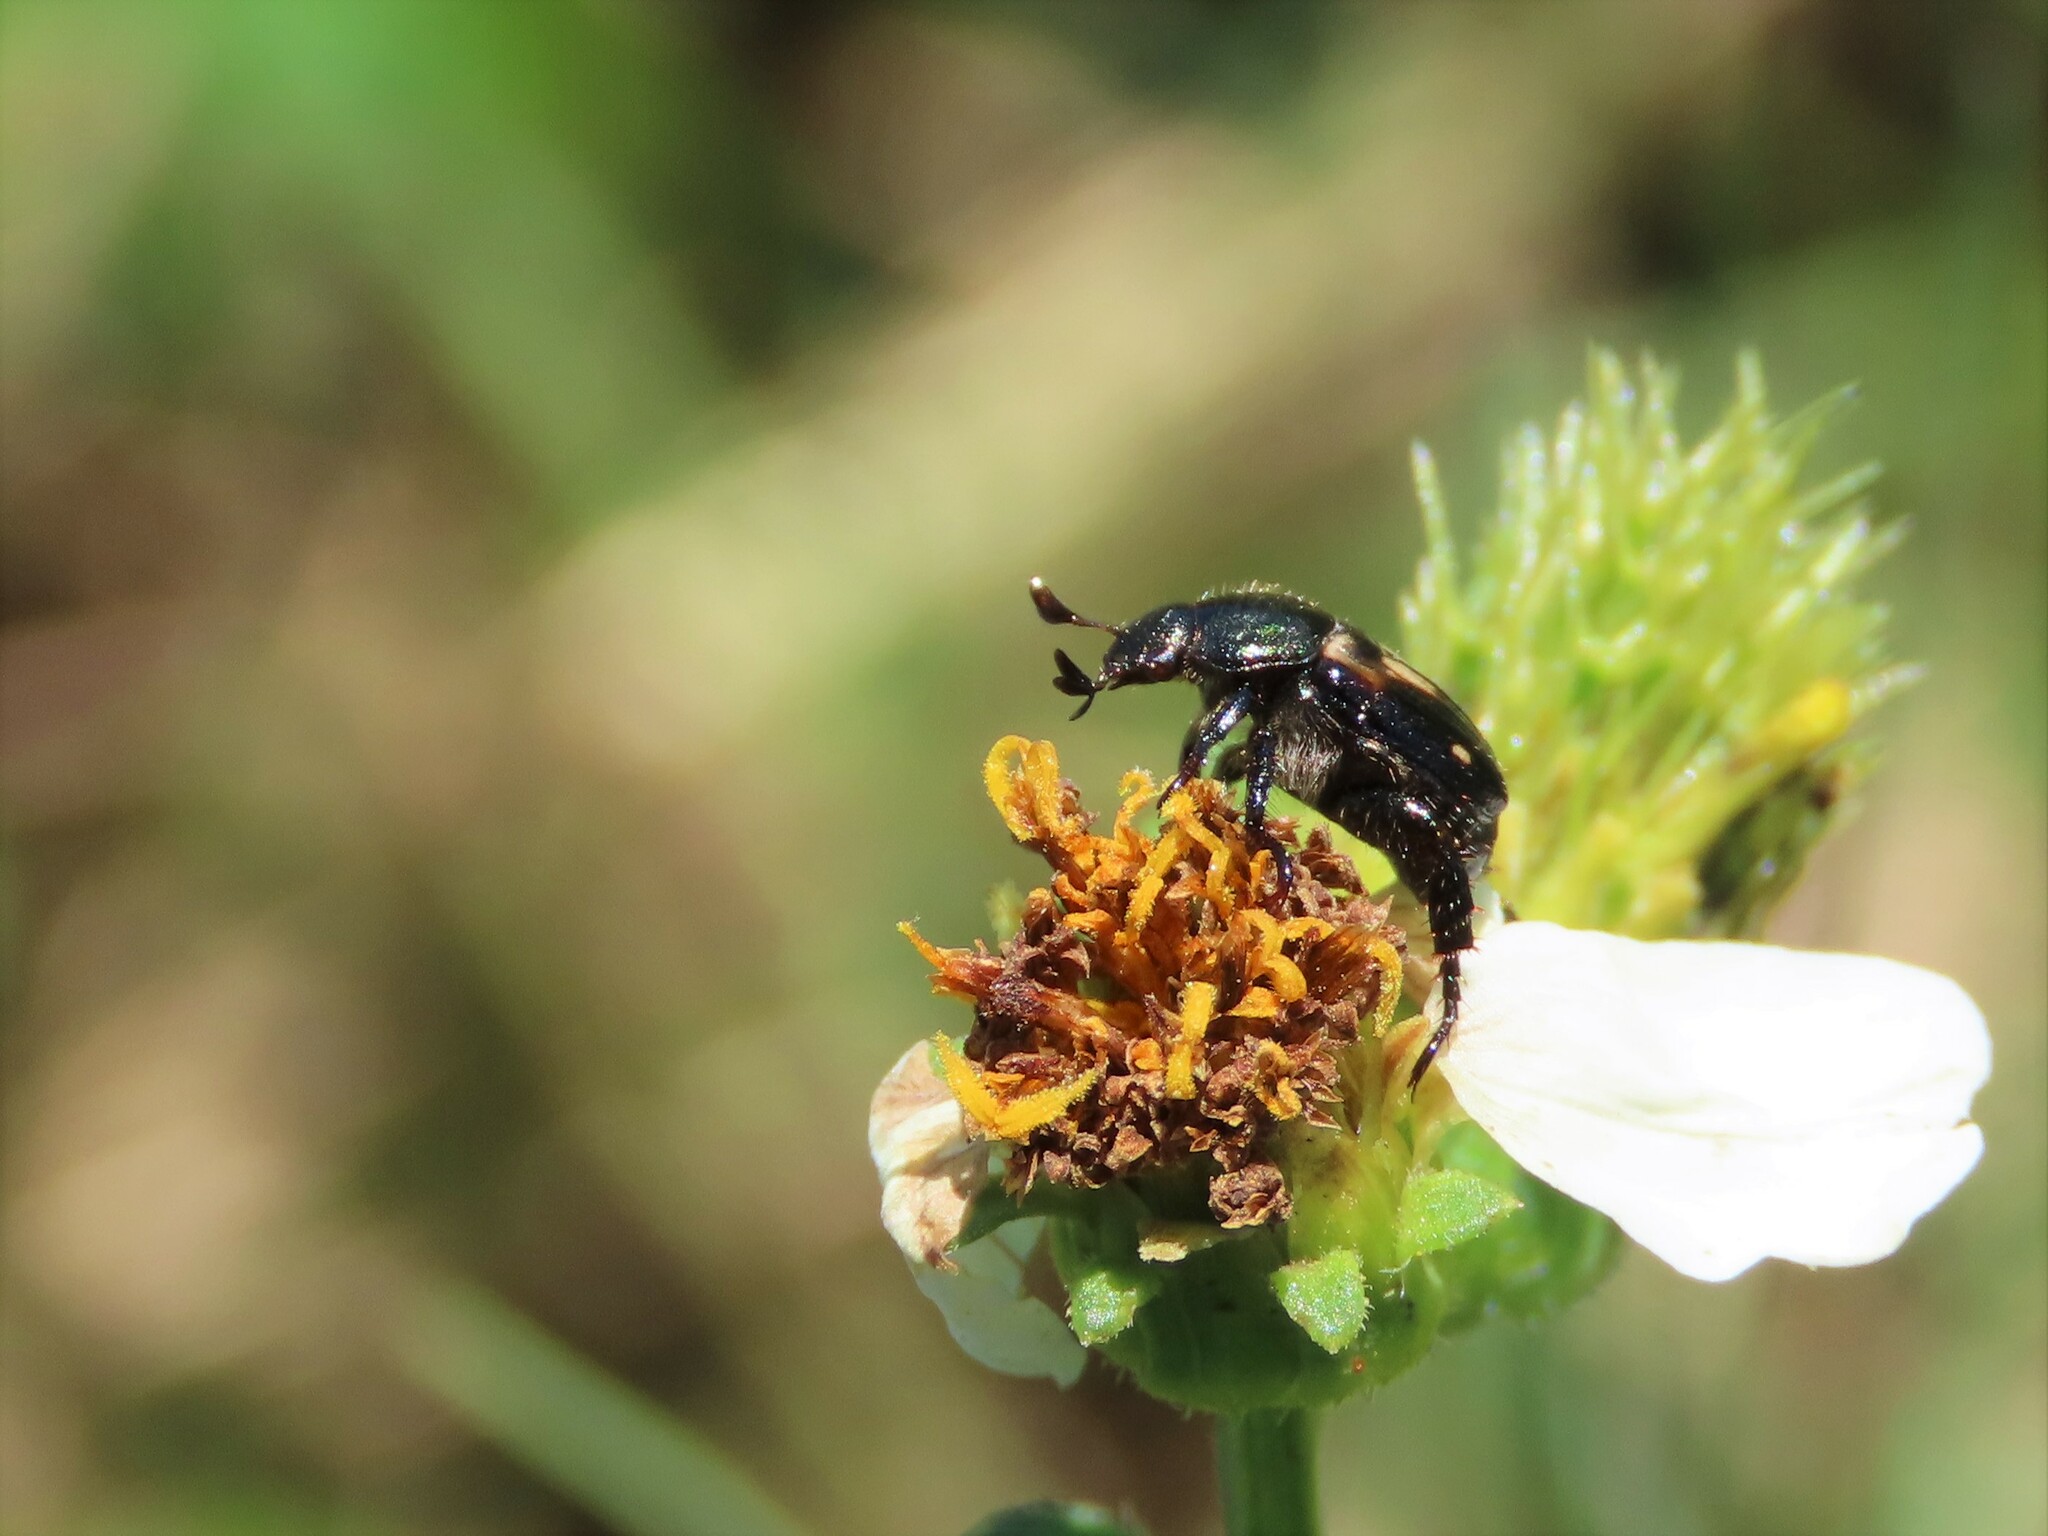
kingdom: Animalia
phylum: Arthropoda
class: Insecta
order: Coleoptera
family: Scarabaeidae
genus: Strigoderma
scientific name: Strigoderma pygmaea
